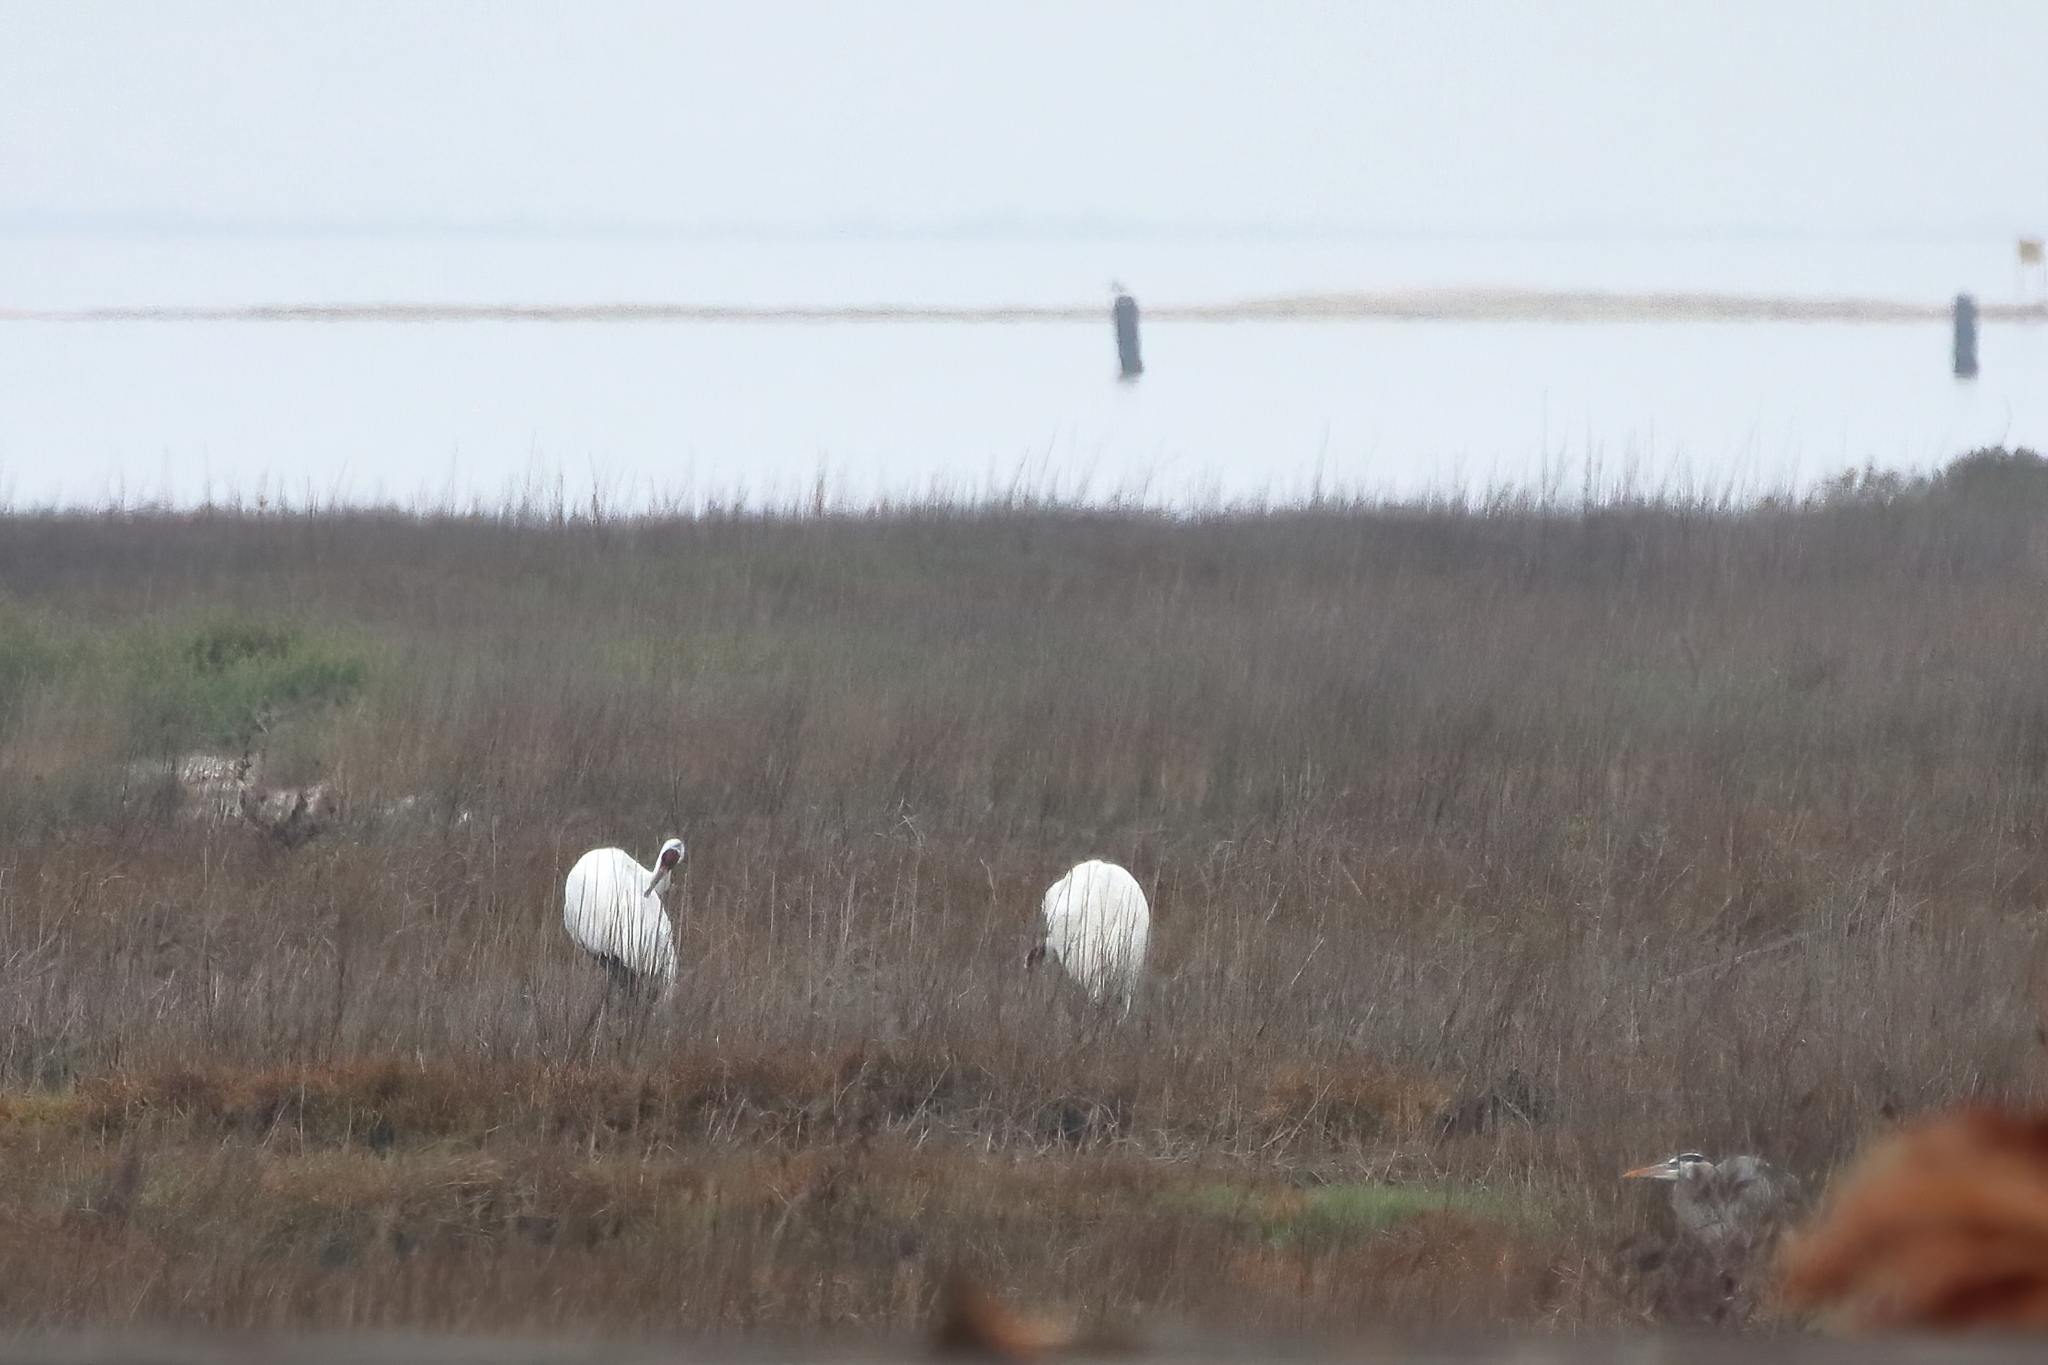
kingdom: Animalia
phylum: Chordata
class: Aves
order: Gruiformes
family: Gruidae
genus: Grus
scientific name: Grus americana
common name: Whooping crane
